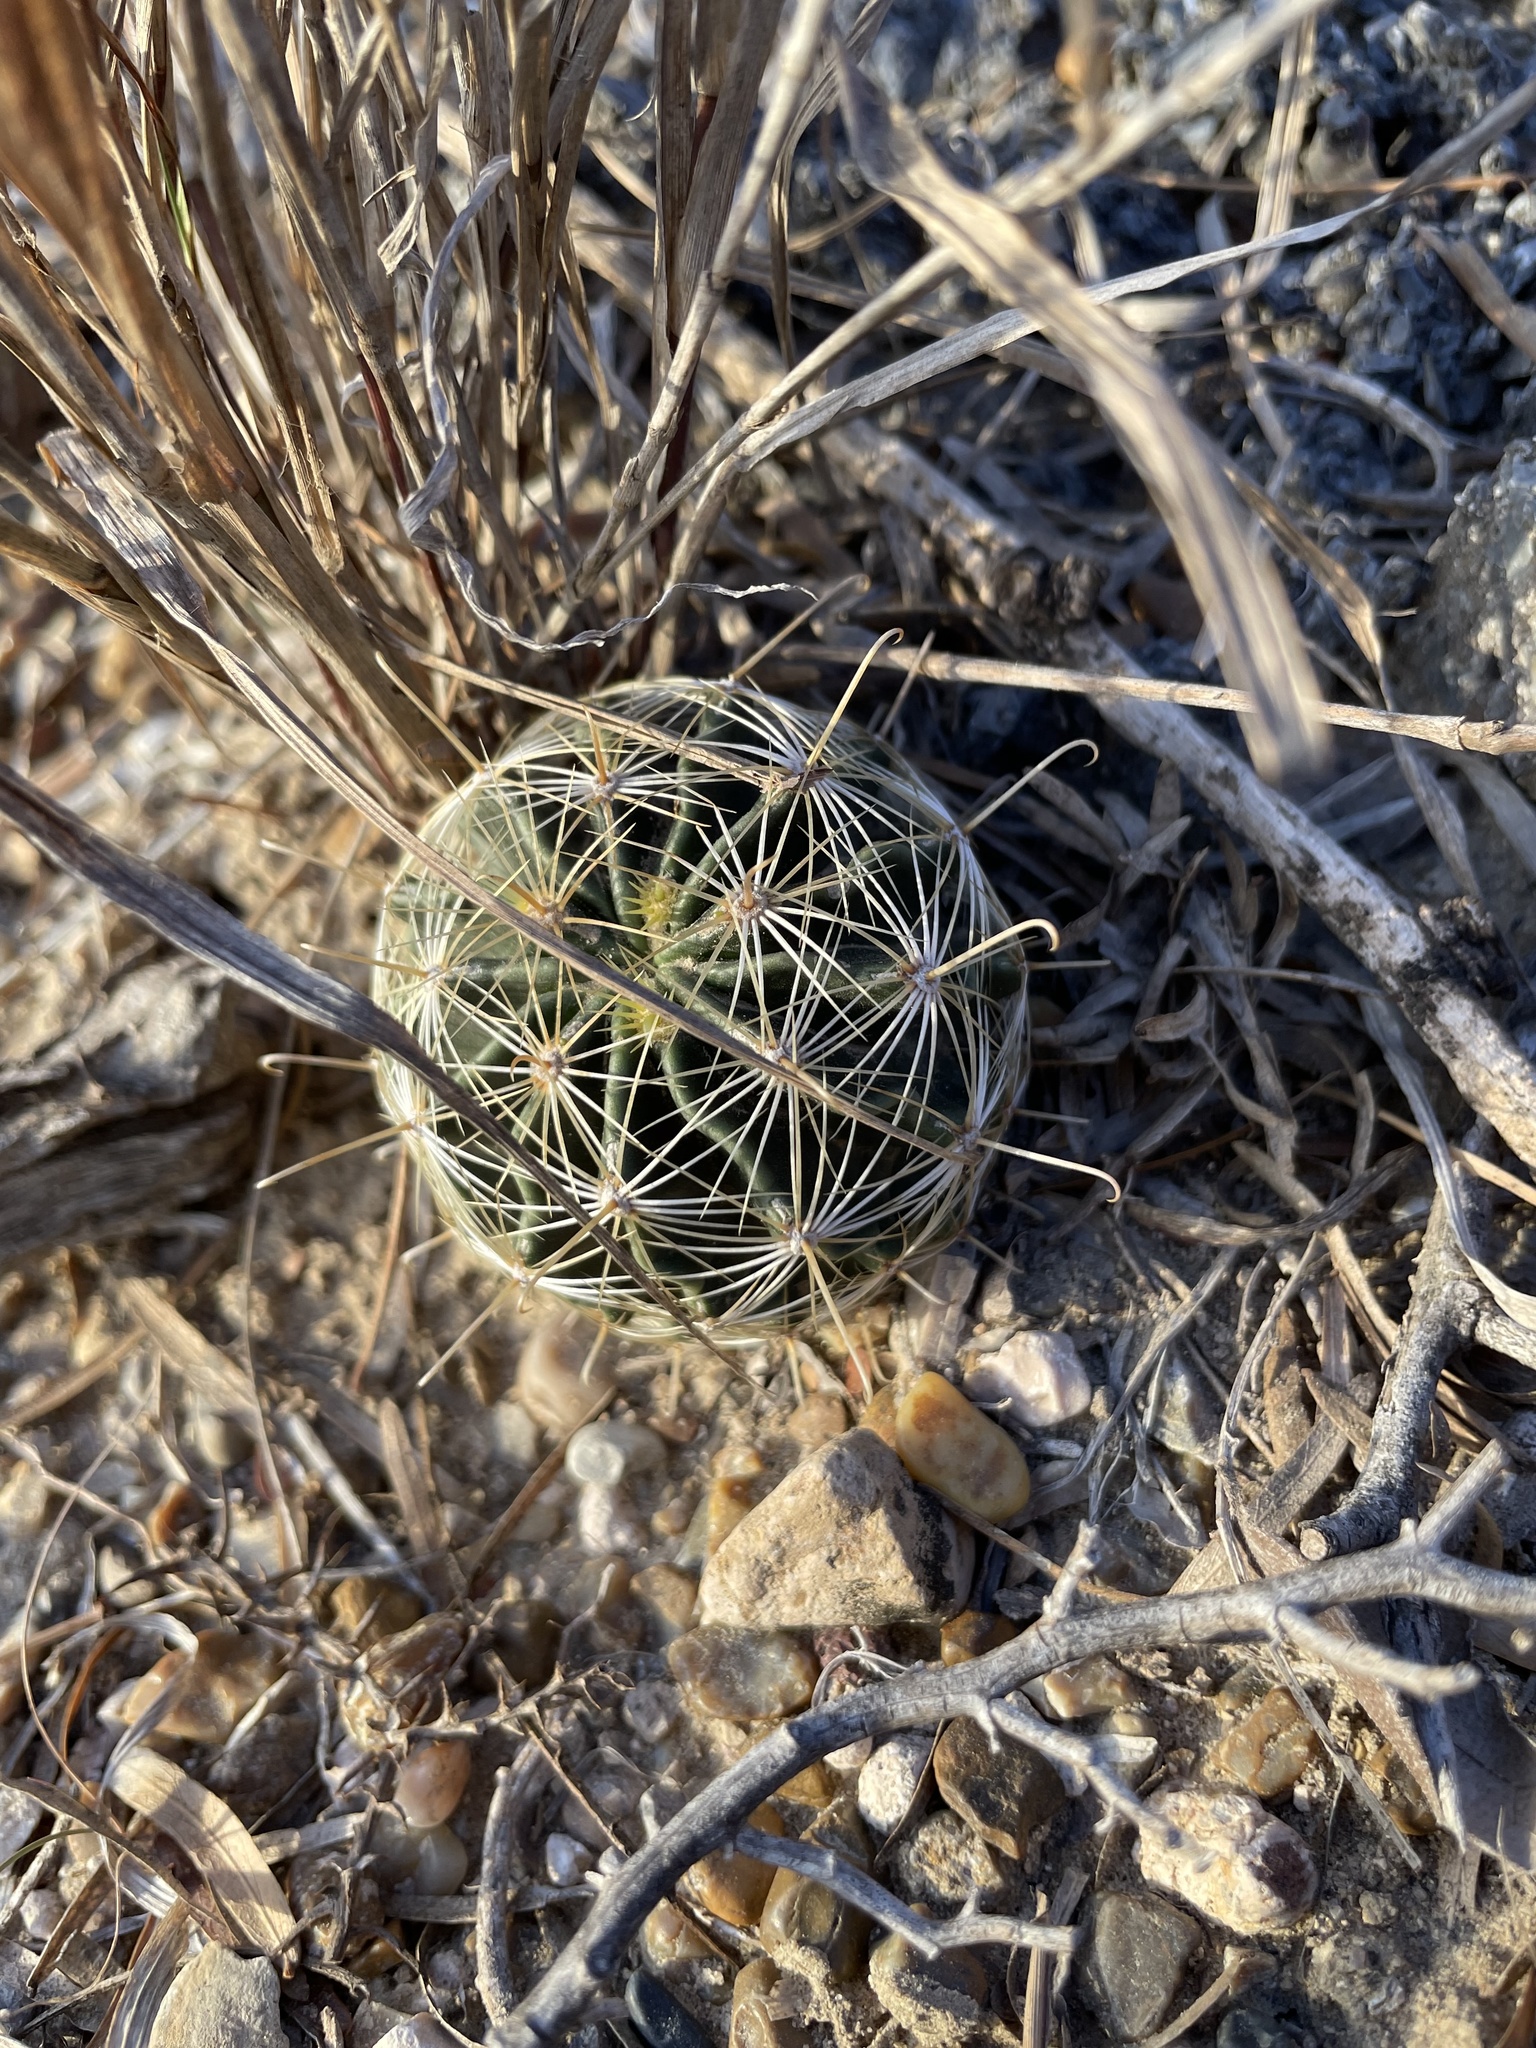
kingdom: Plantae
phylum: Tracheophyta
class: Magnoliopsida
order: Caryophyllales
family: Cactaceae
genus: Thelocactus
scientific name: Thelocactus setispinus
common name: Miniature barrel cactus
